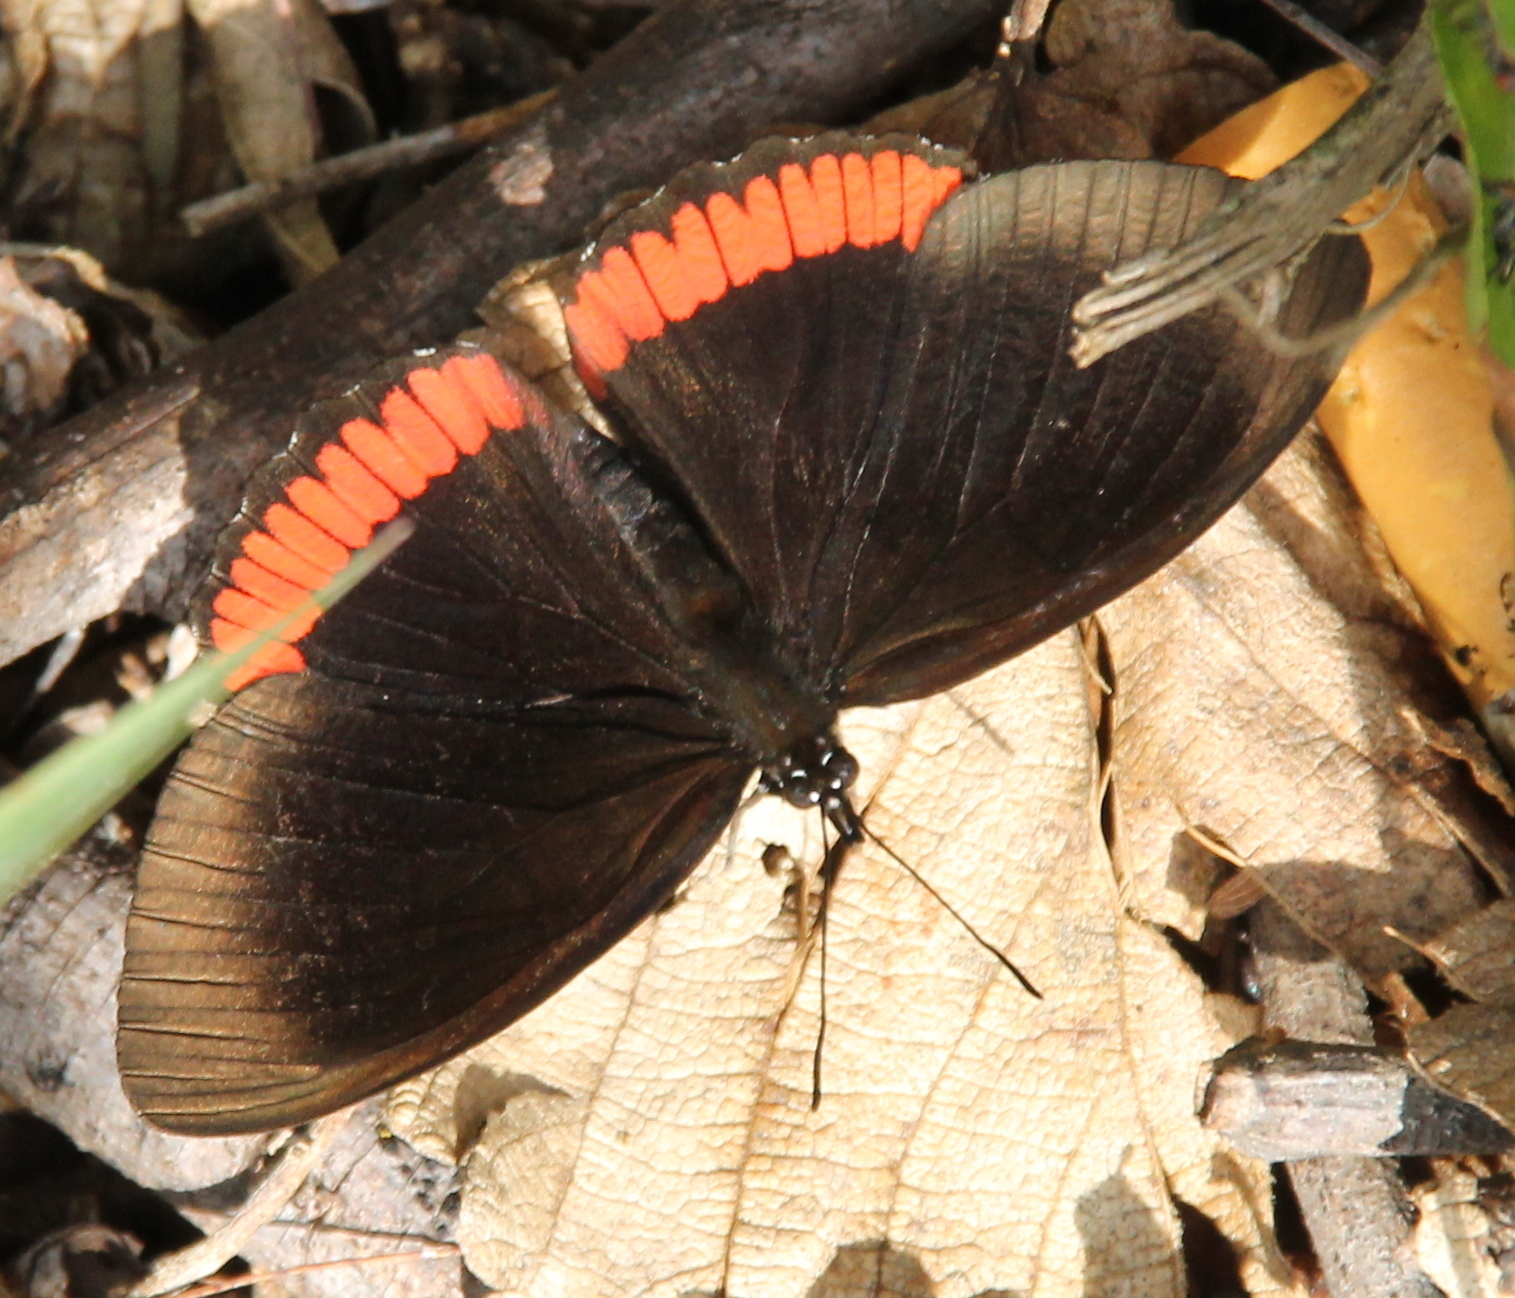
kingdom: Animalia
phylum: Arthropoda
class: Insecta
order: Lepidoptera
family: Sesiidae
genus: Sesia
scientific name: Sesia Biblis hyperia
